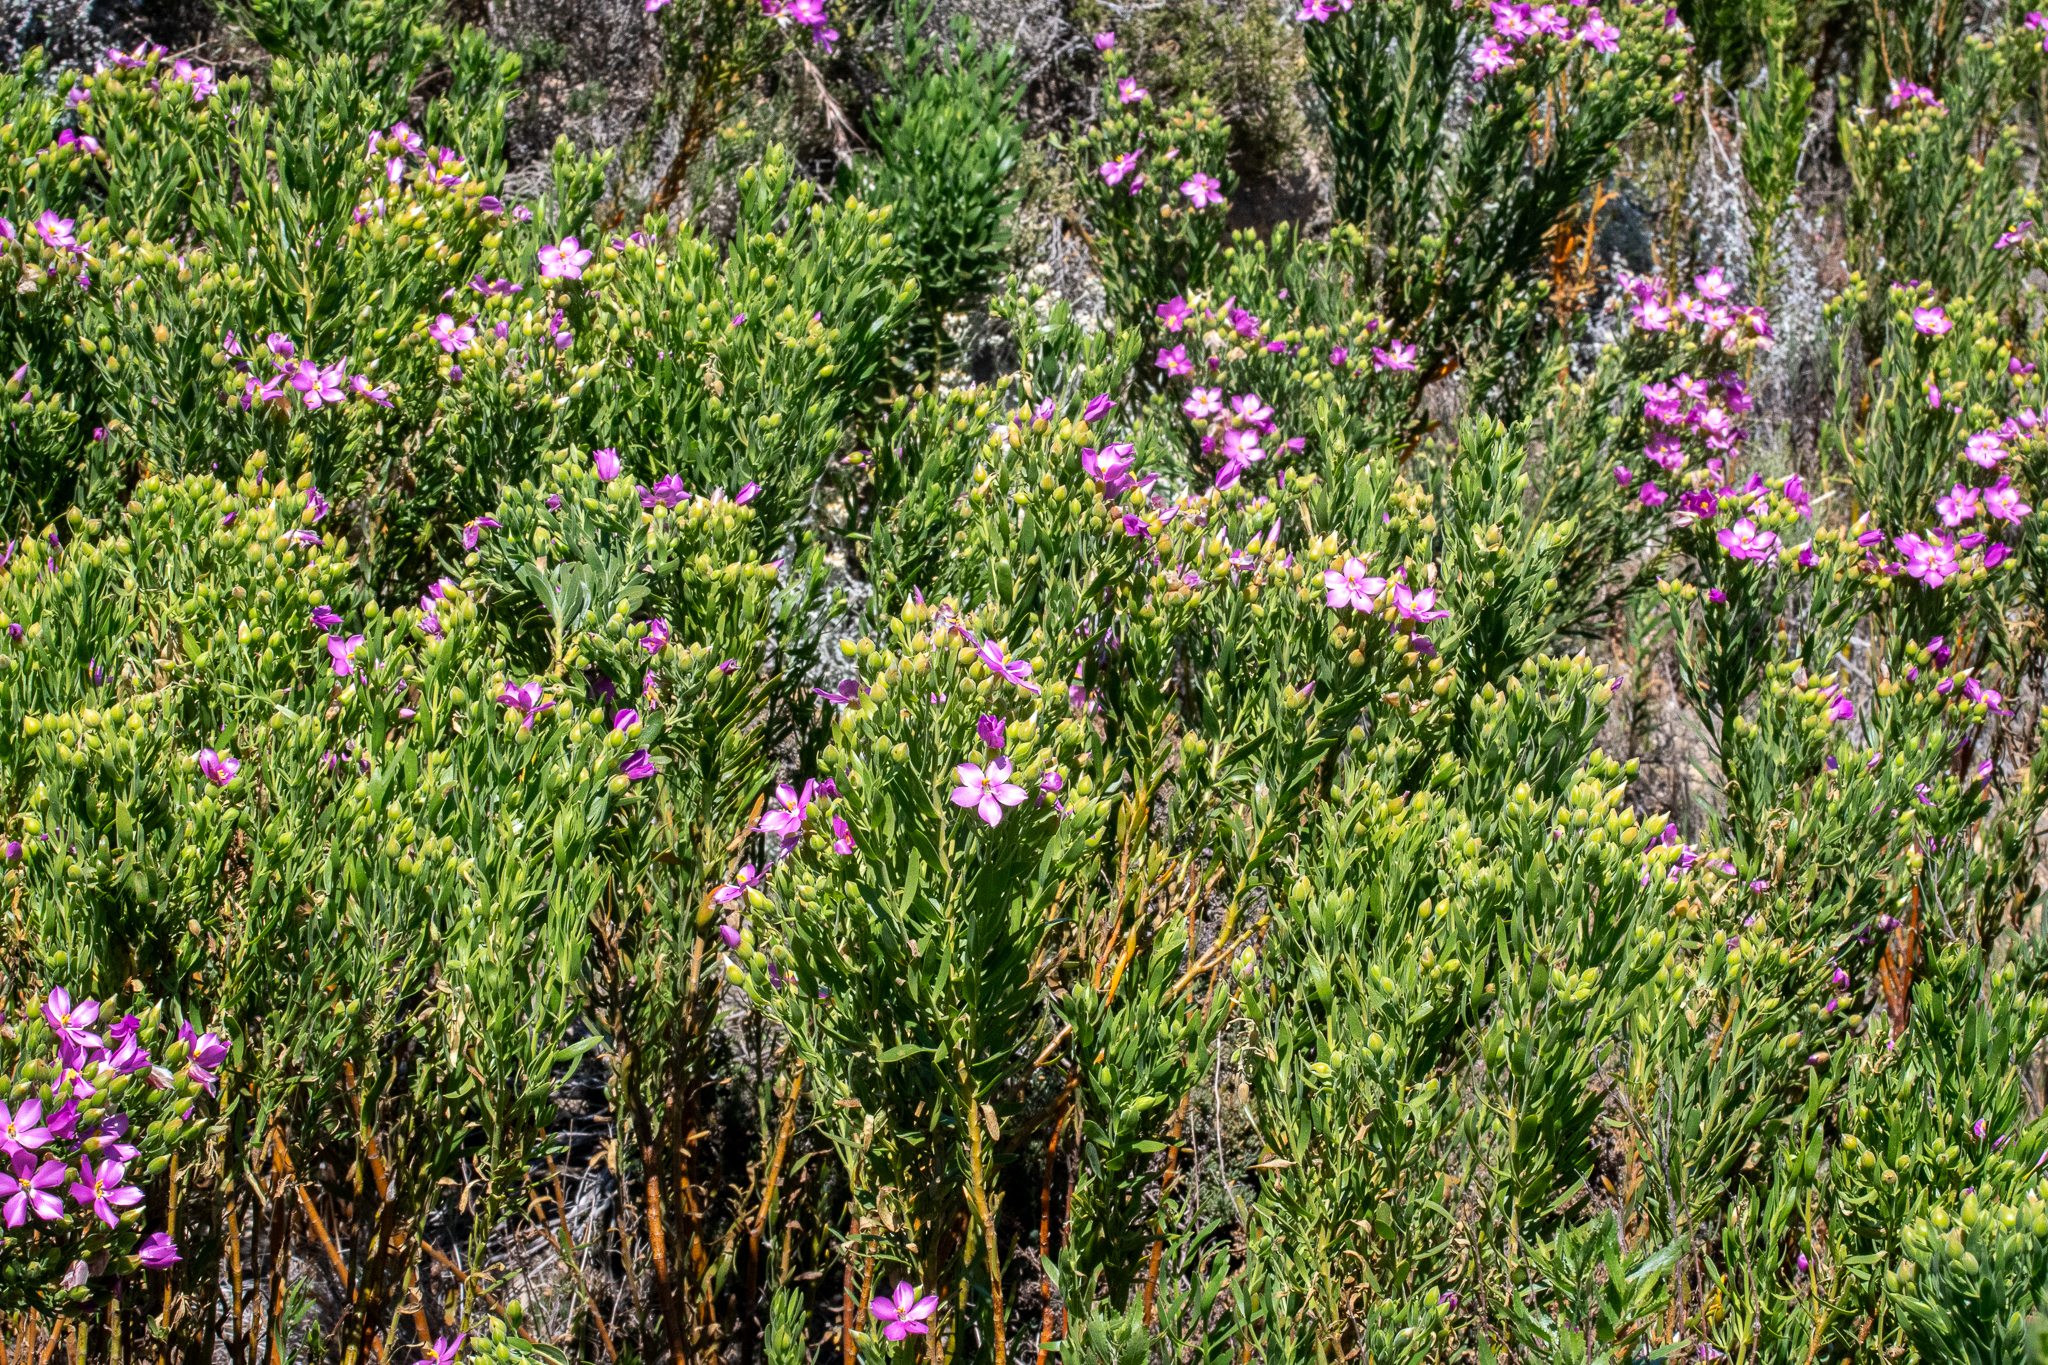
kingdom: Plantae
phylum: Tracheophyta
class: Magnoliopsida
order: Gentianales
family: Gentianaceae
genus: Orphium
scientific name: Orphium frutescens
